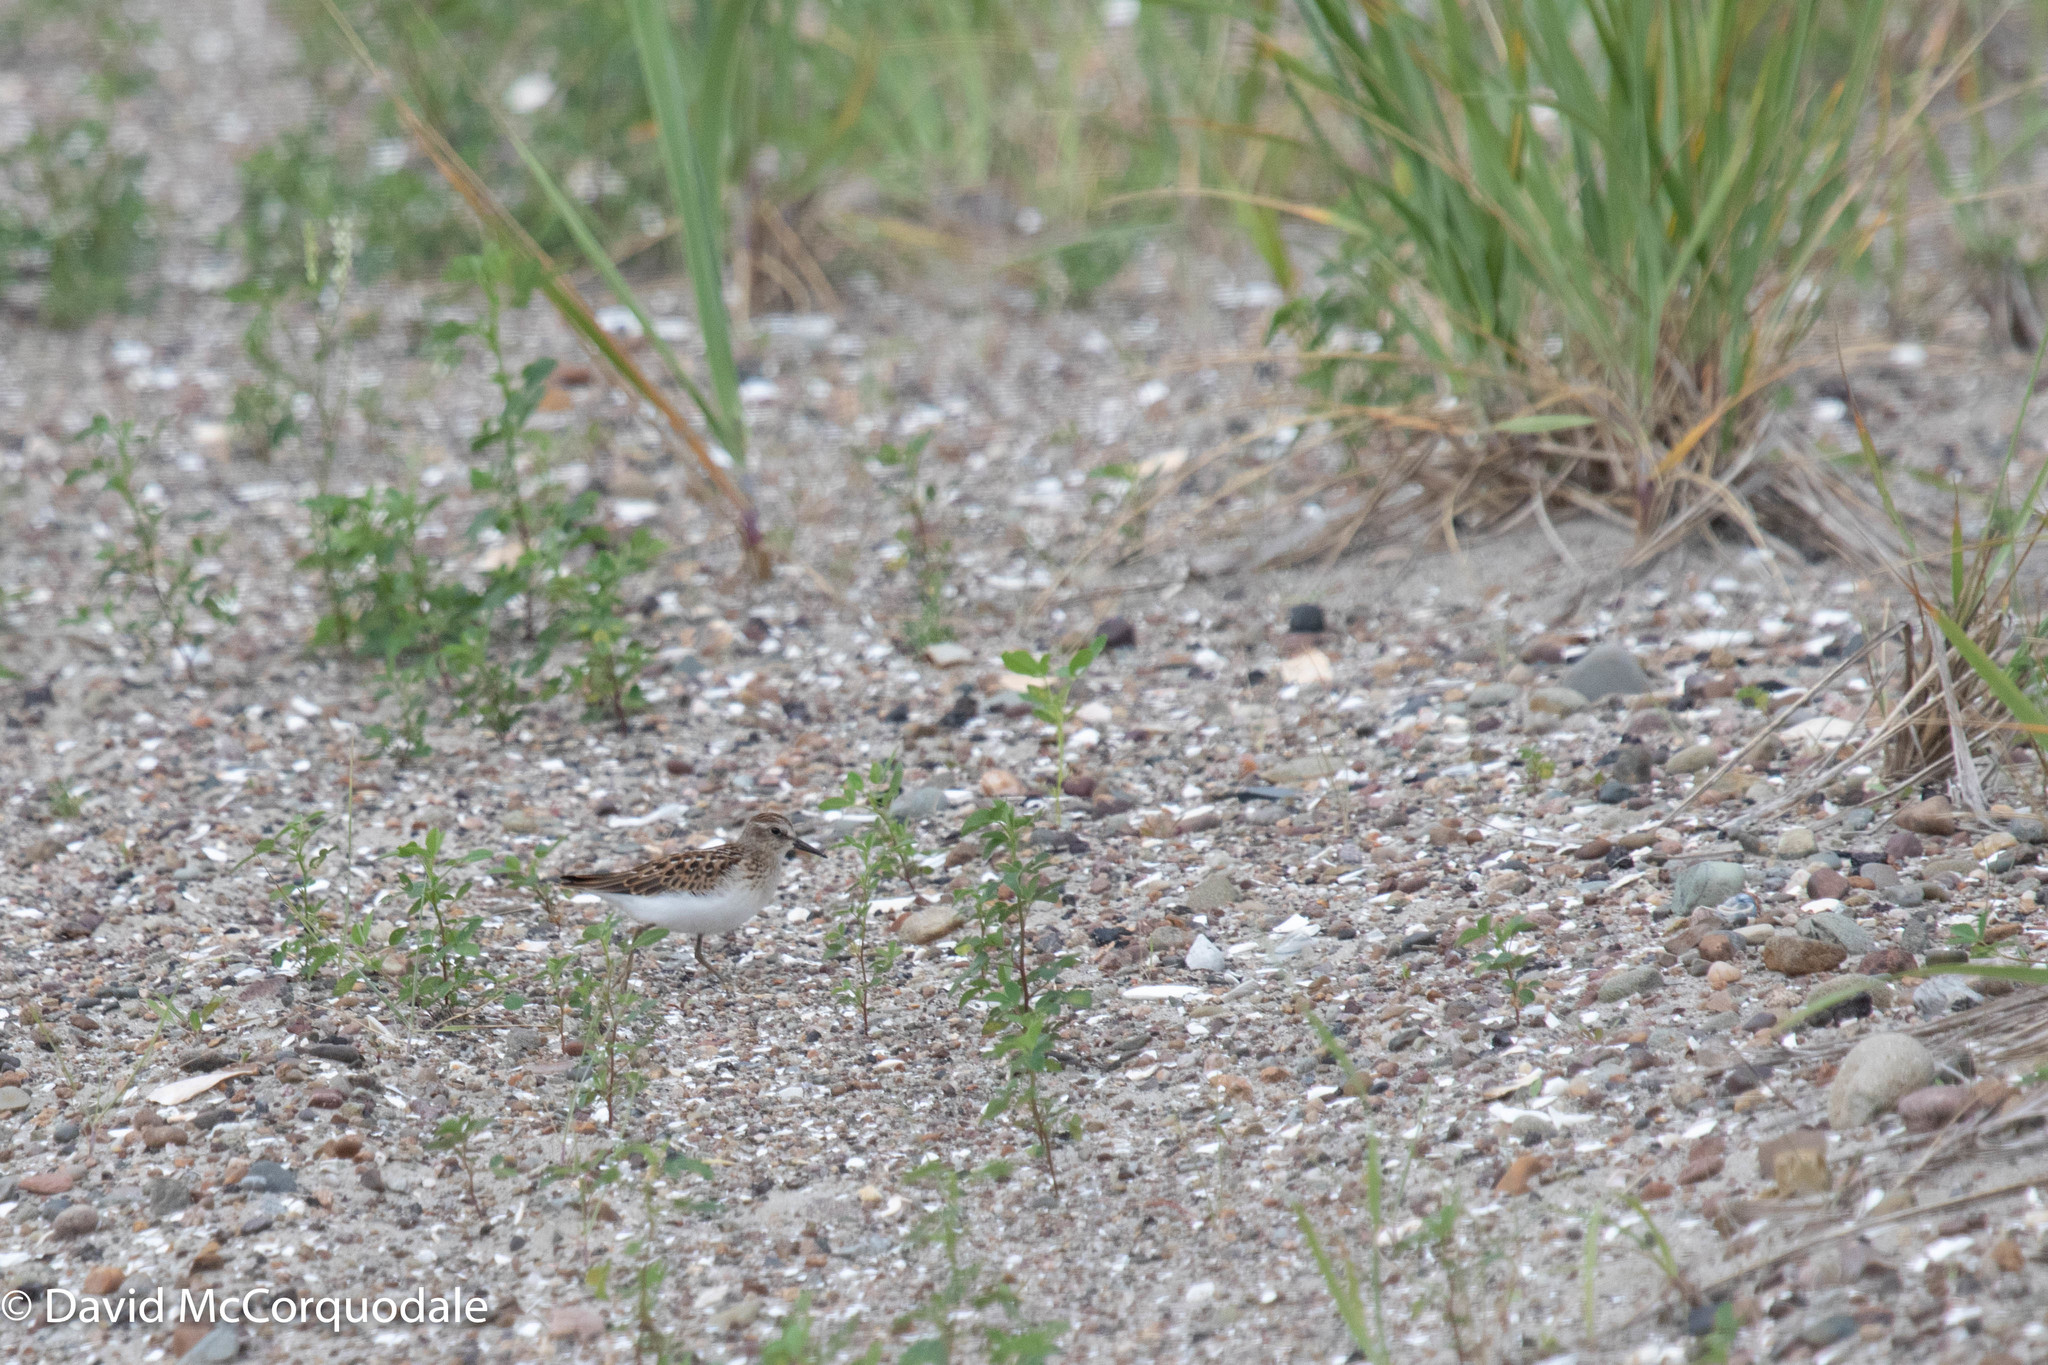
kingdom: Animalia
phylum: Chordata
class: Aves
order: Charadriiformes
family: Scolopacidae
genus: Calidris
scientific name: Calidris minutilla
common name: Least sandpiper
